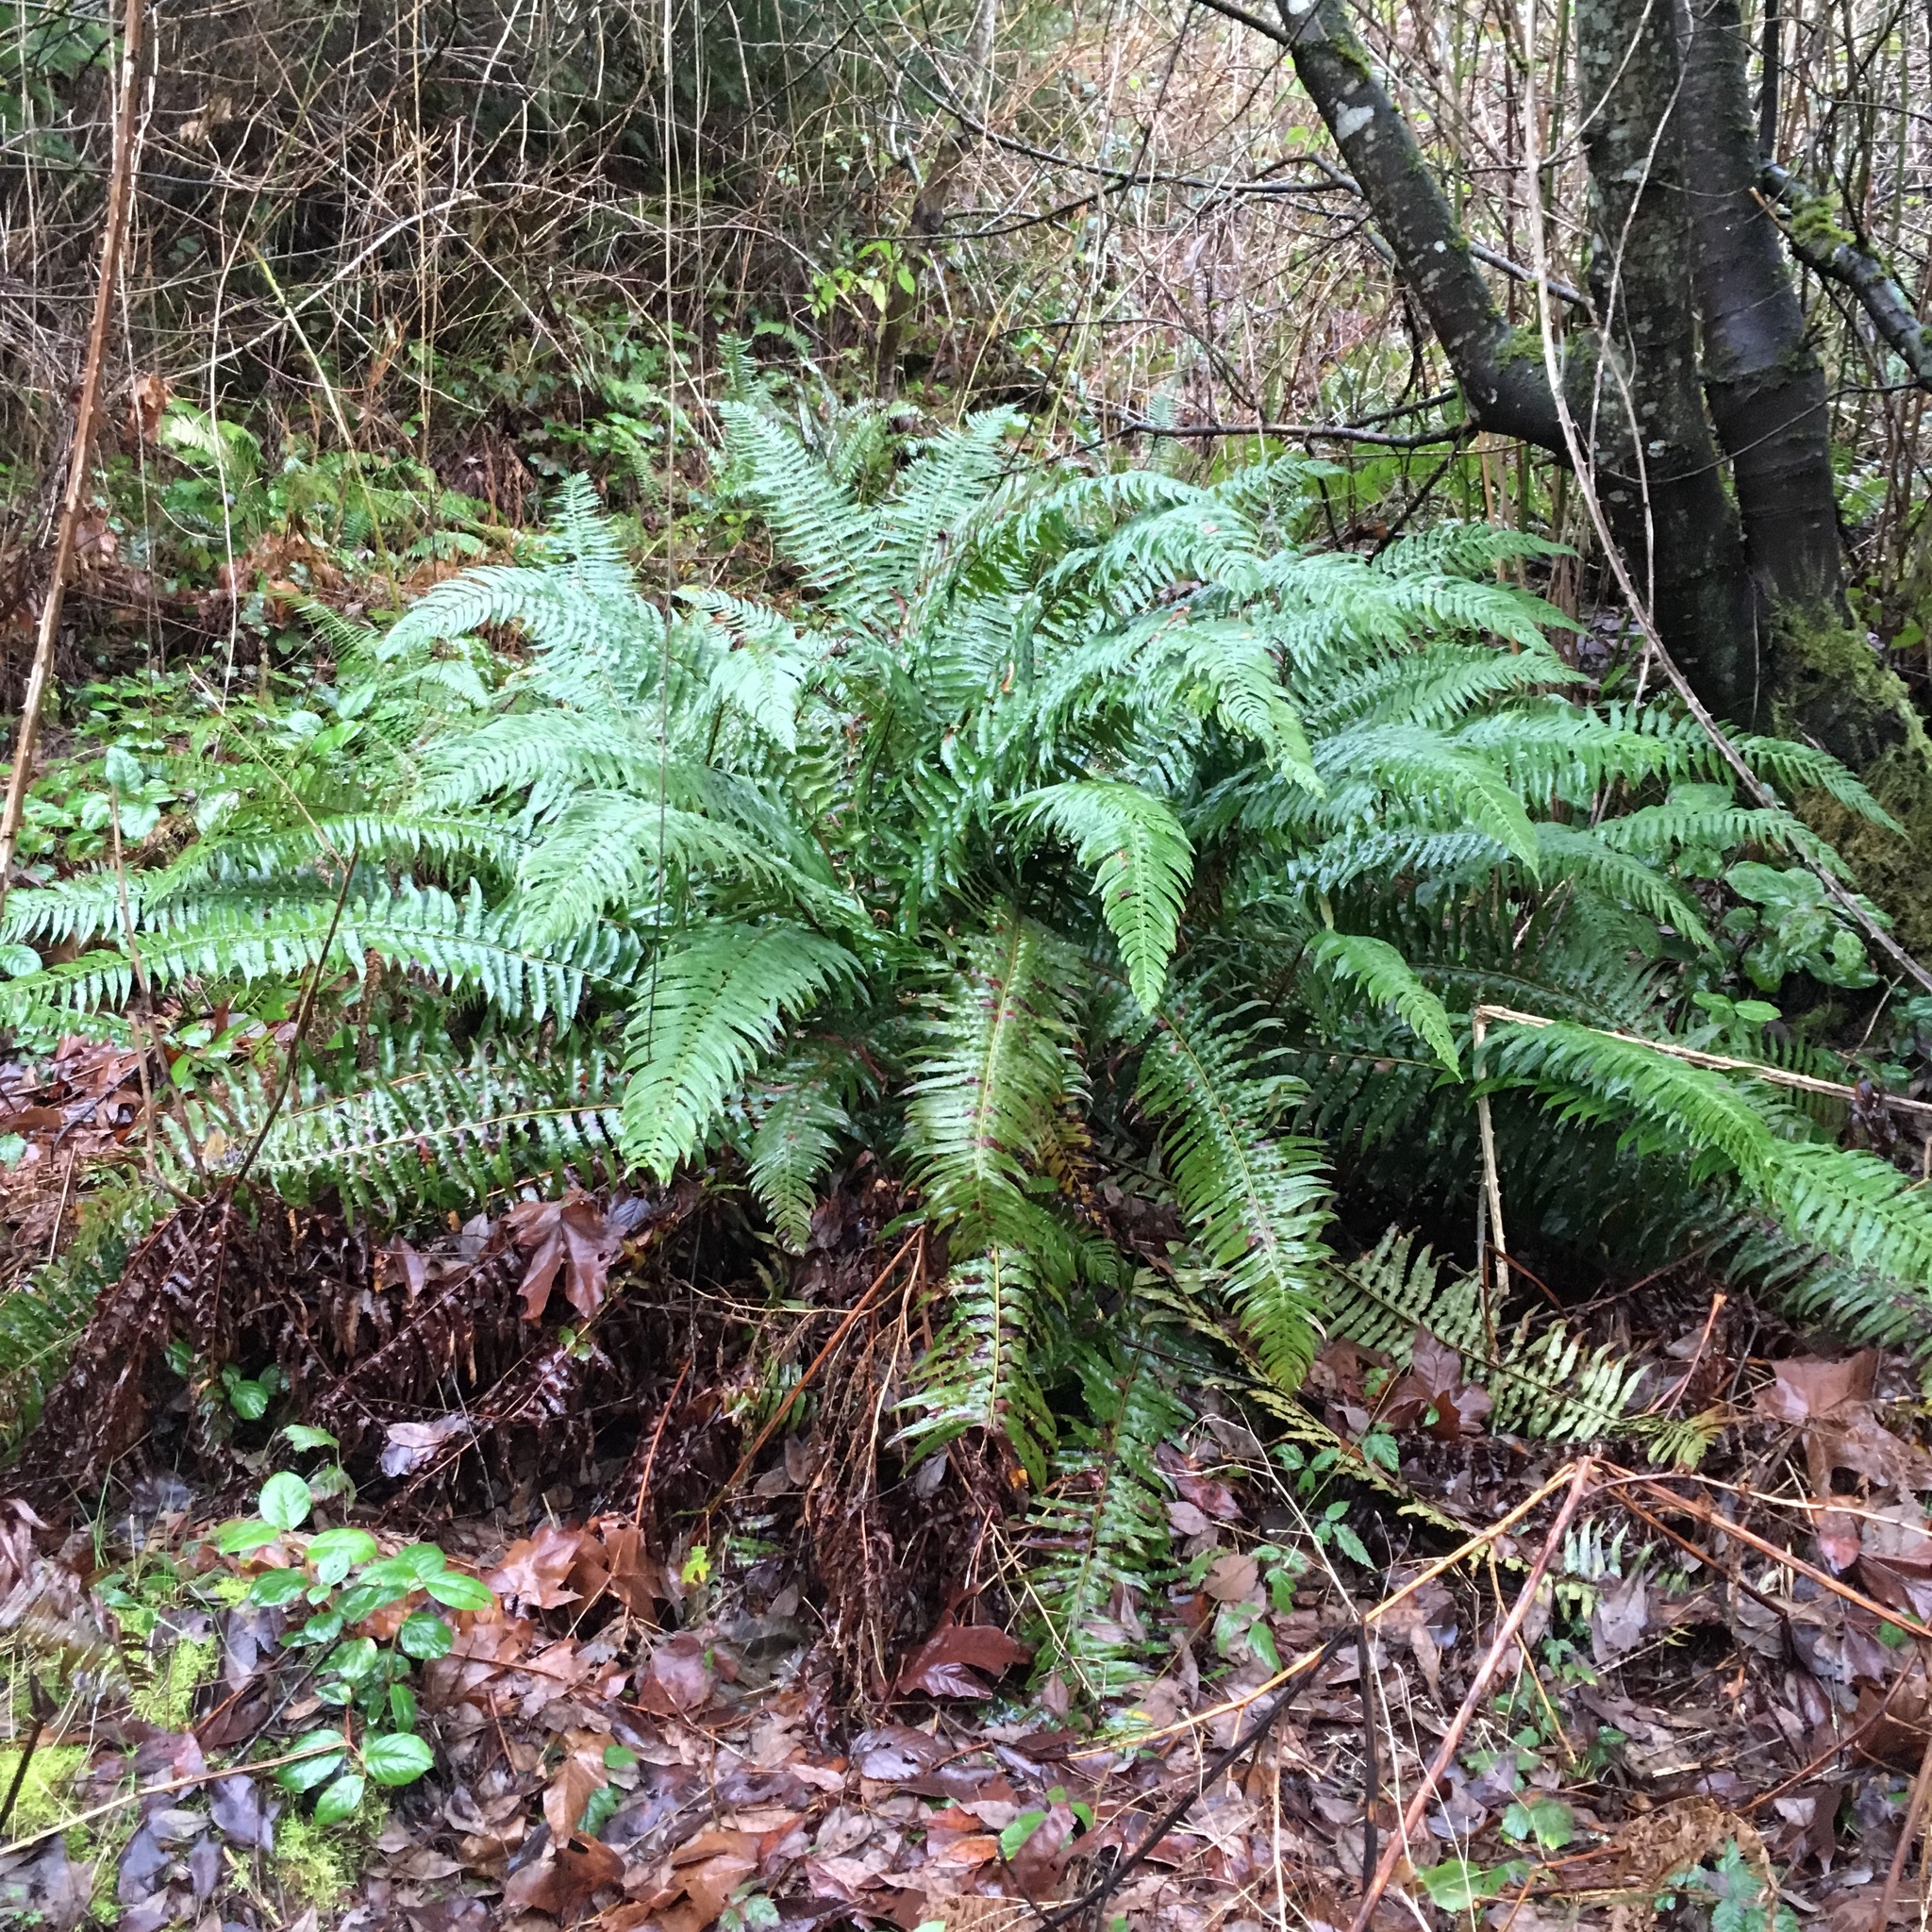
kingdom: Plantae
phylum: Tracheophyta
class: Polypodiopsida
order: Polypodiales
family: Dryopteridaceae
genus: Polystichum
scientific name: Polystichum munitum
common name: Western sword-fern
